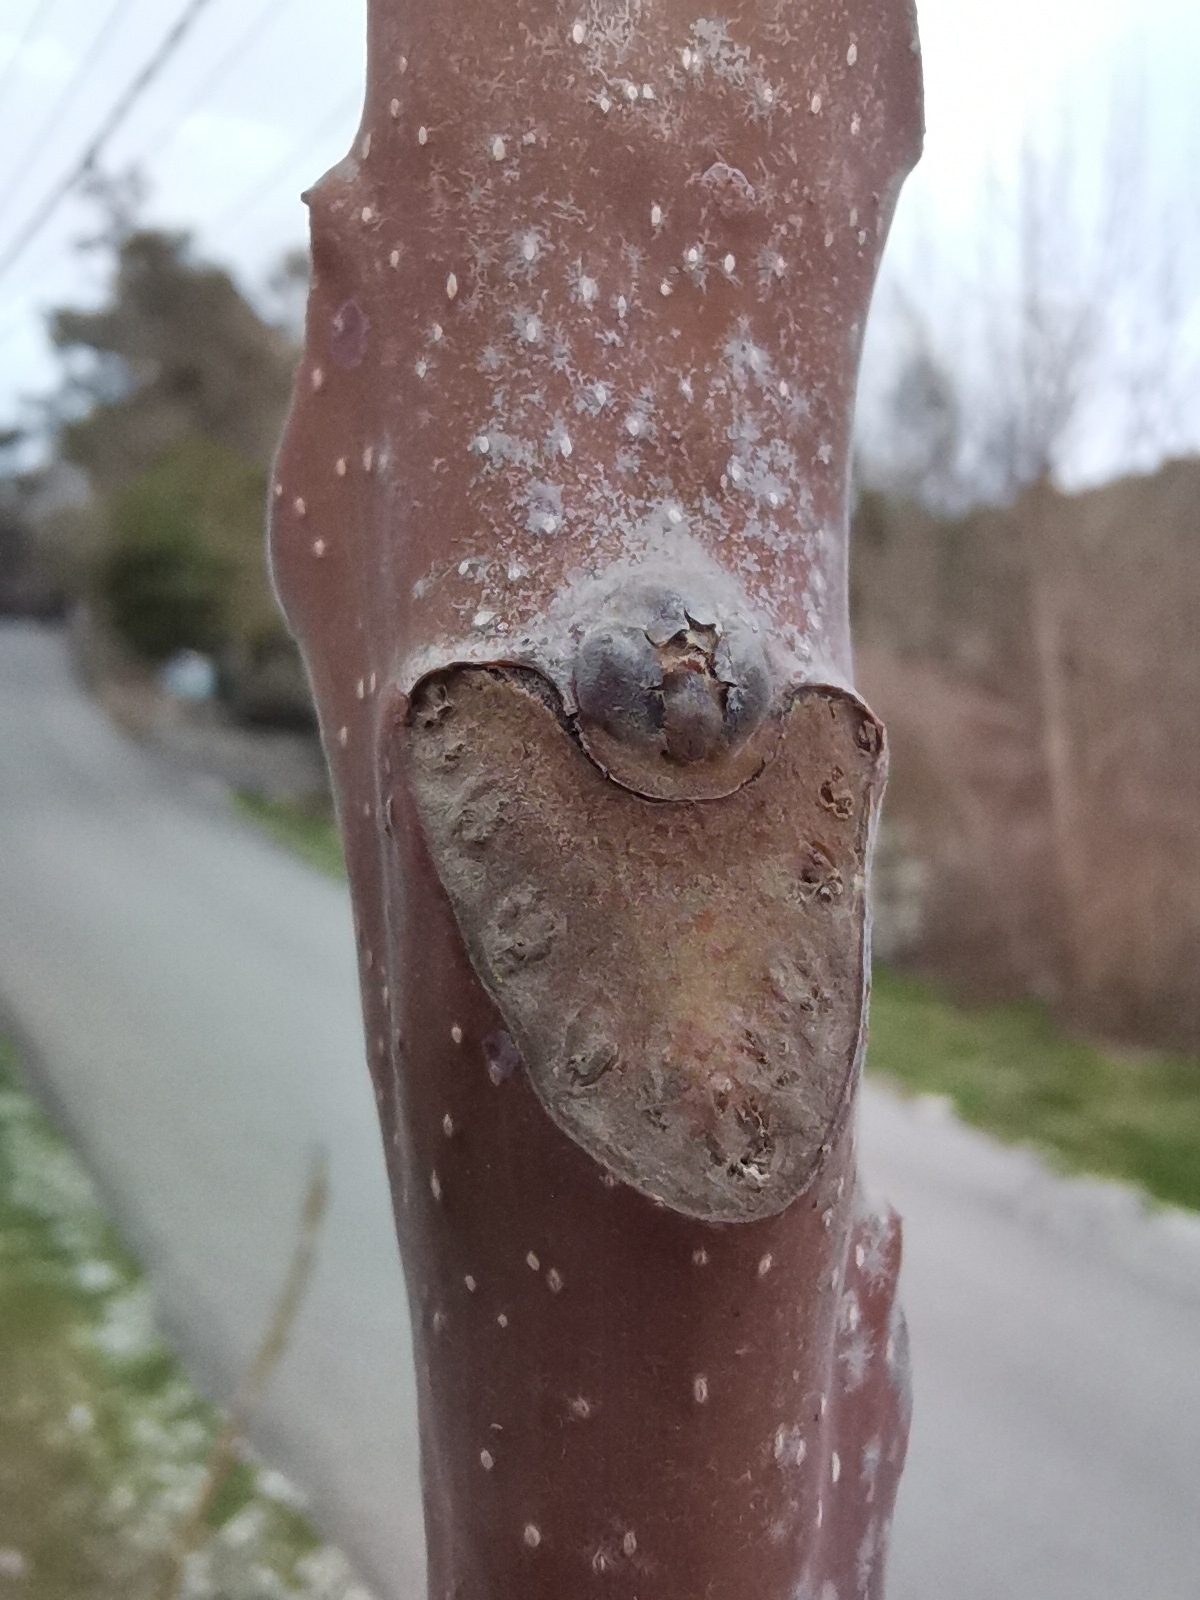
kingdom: Plantae
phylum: Tracheophyta
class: Magnoliopsida
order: Sapindales
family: Simaroubaceae
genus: Ailanthus
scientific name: Ailanthus altissima
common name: Tree-of-heaven
